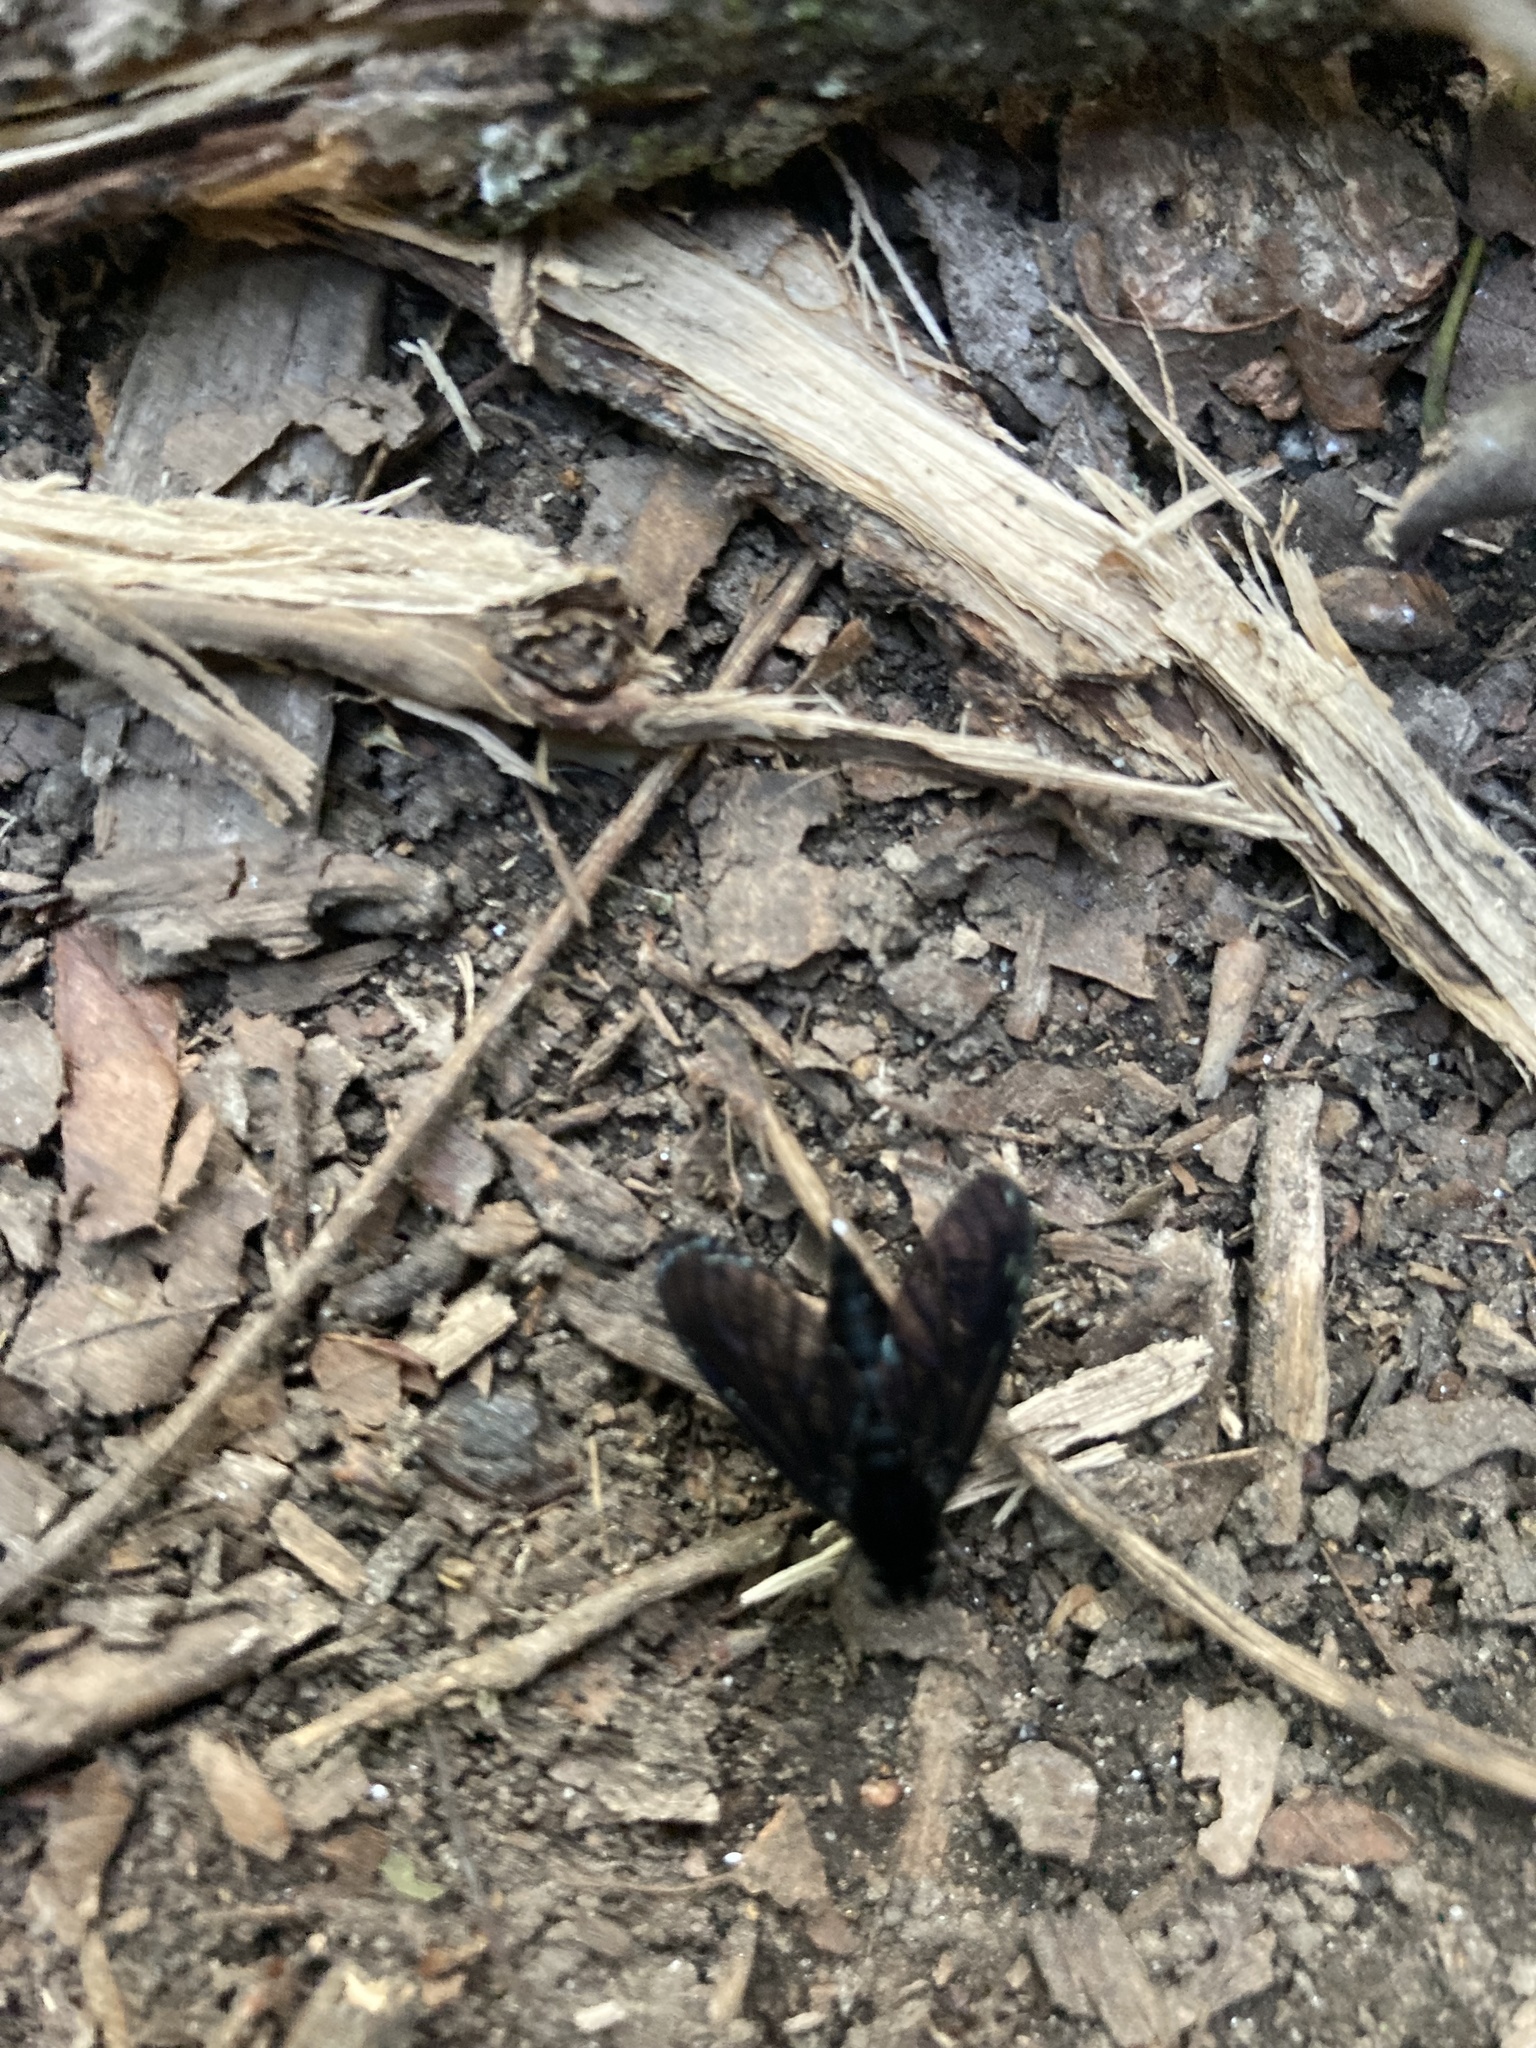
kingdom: Animalia
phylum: Arthropoda
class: Insecta
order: Diptera
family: Rhagionidae
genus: Chrysopilus
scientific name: Chrysopilus velutinus
